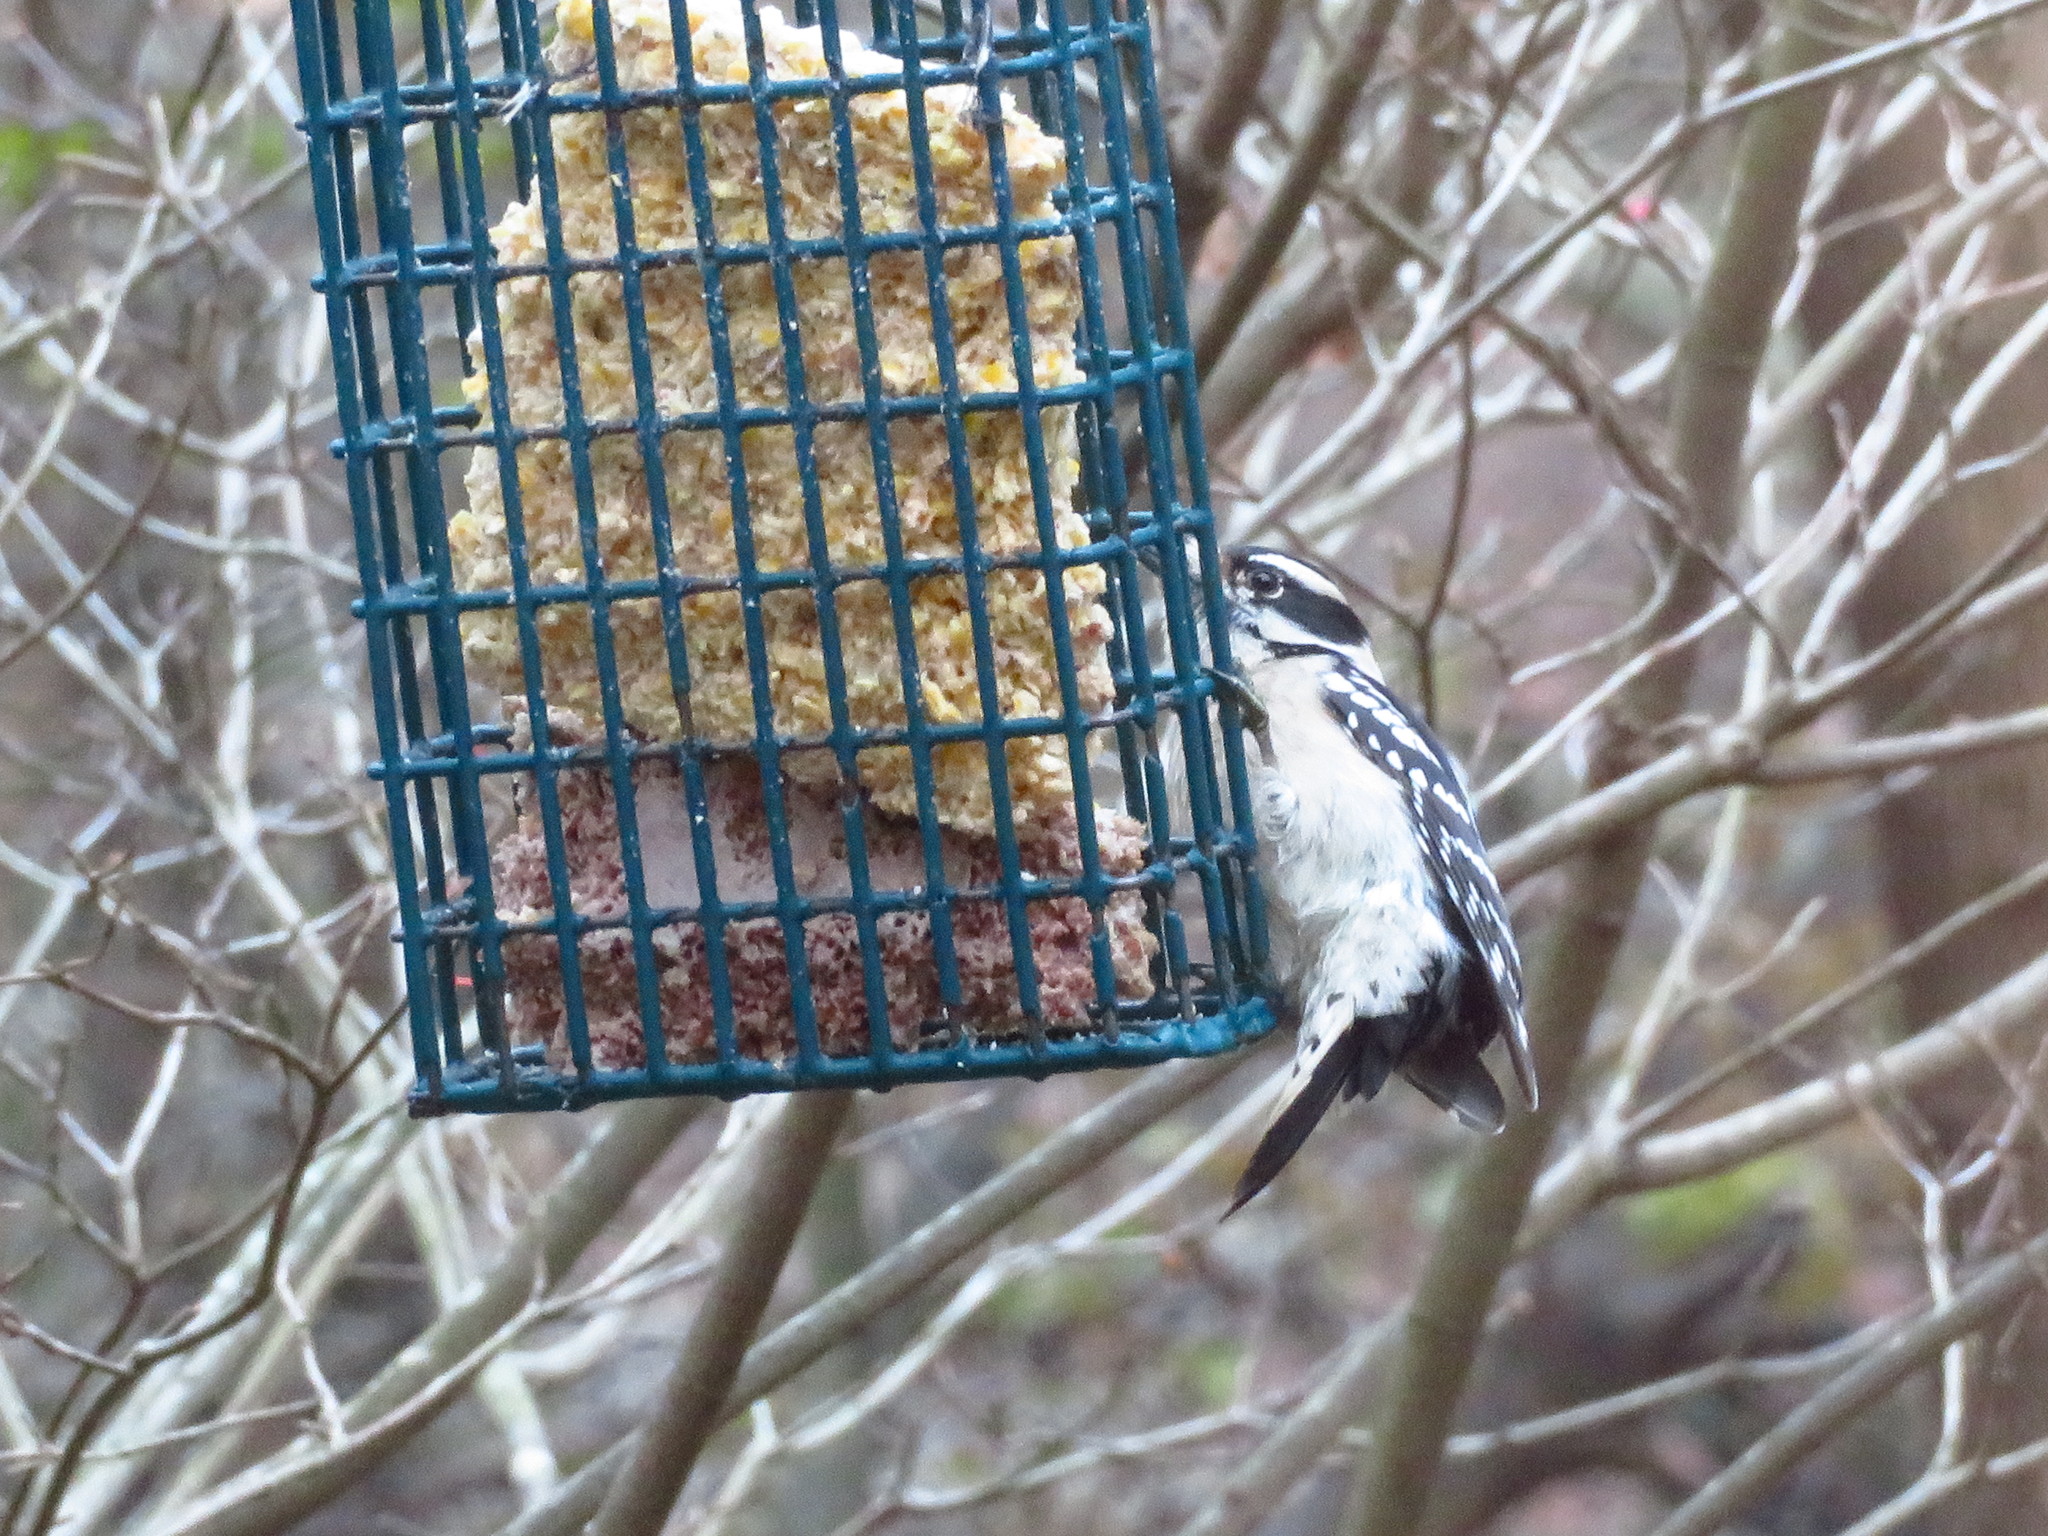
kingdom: Animalia
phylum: Chordata
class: Aves
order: Piciformes
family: Picidae
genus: Dryobates
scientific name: Dryobates pubescens
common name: Downy woodpecker
